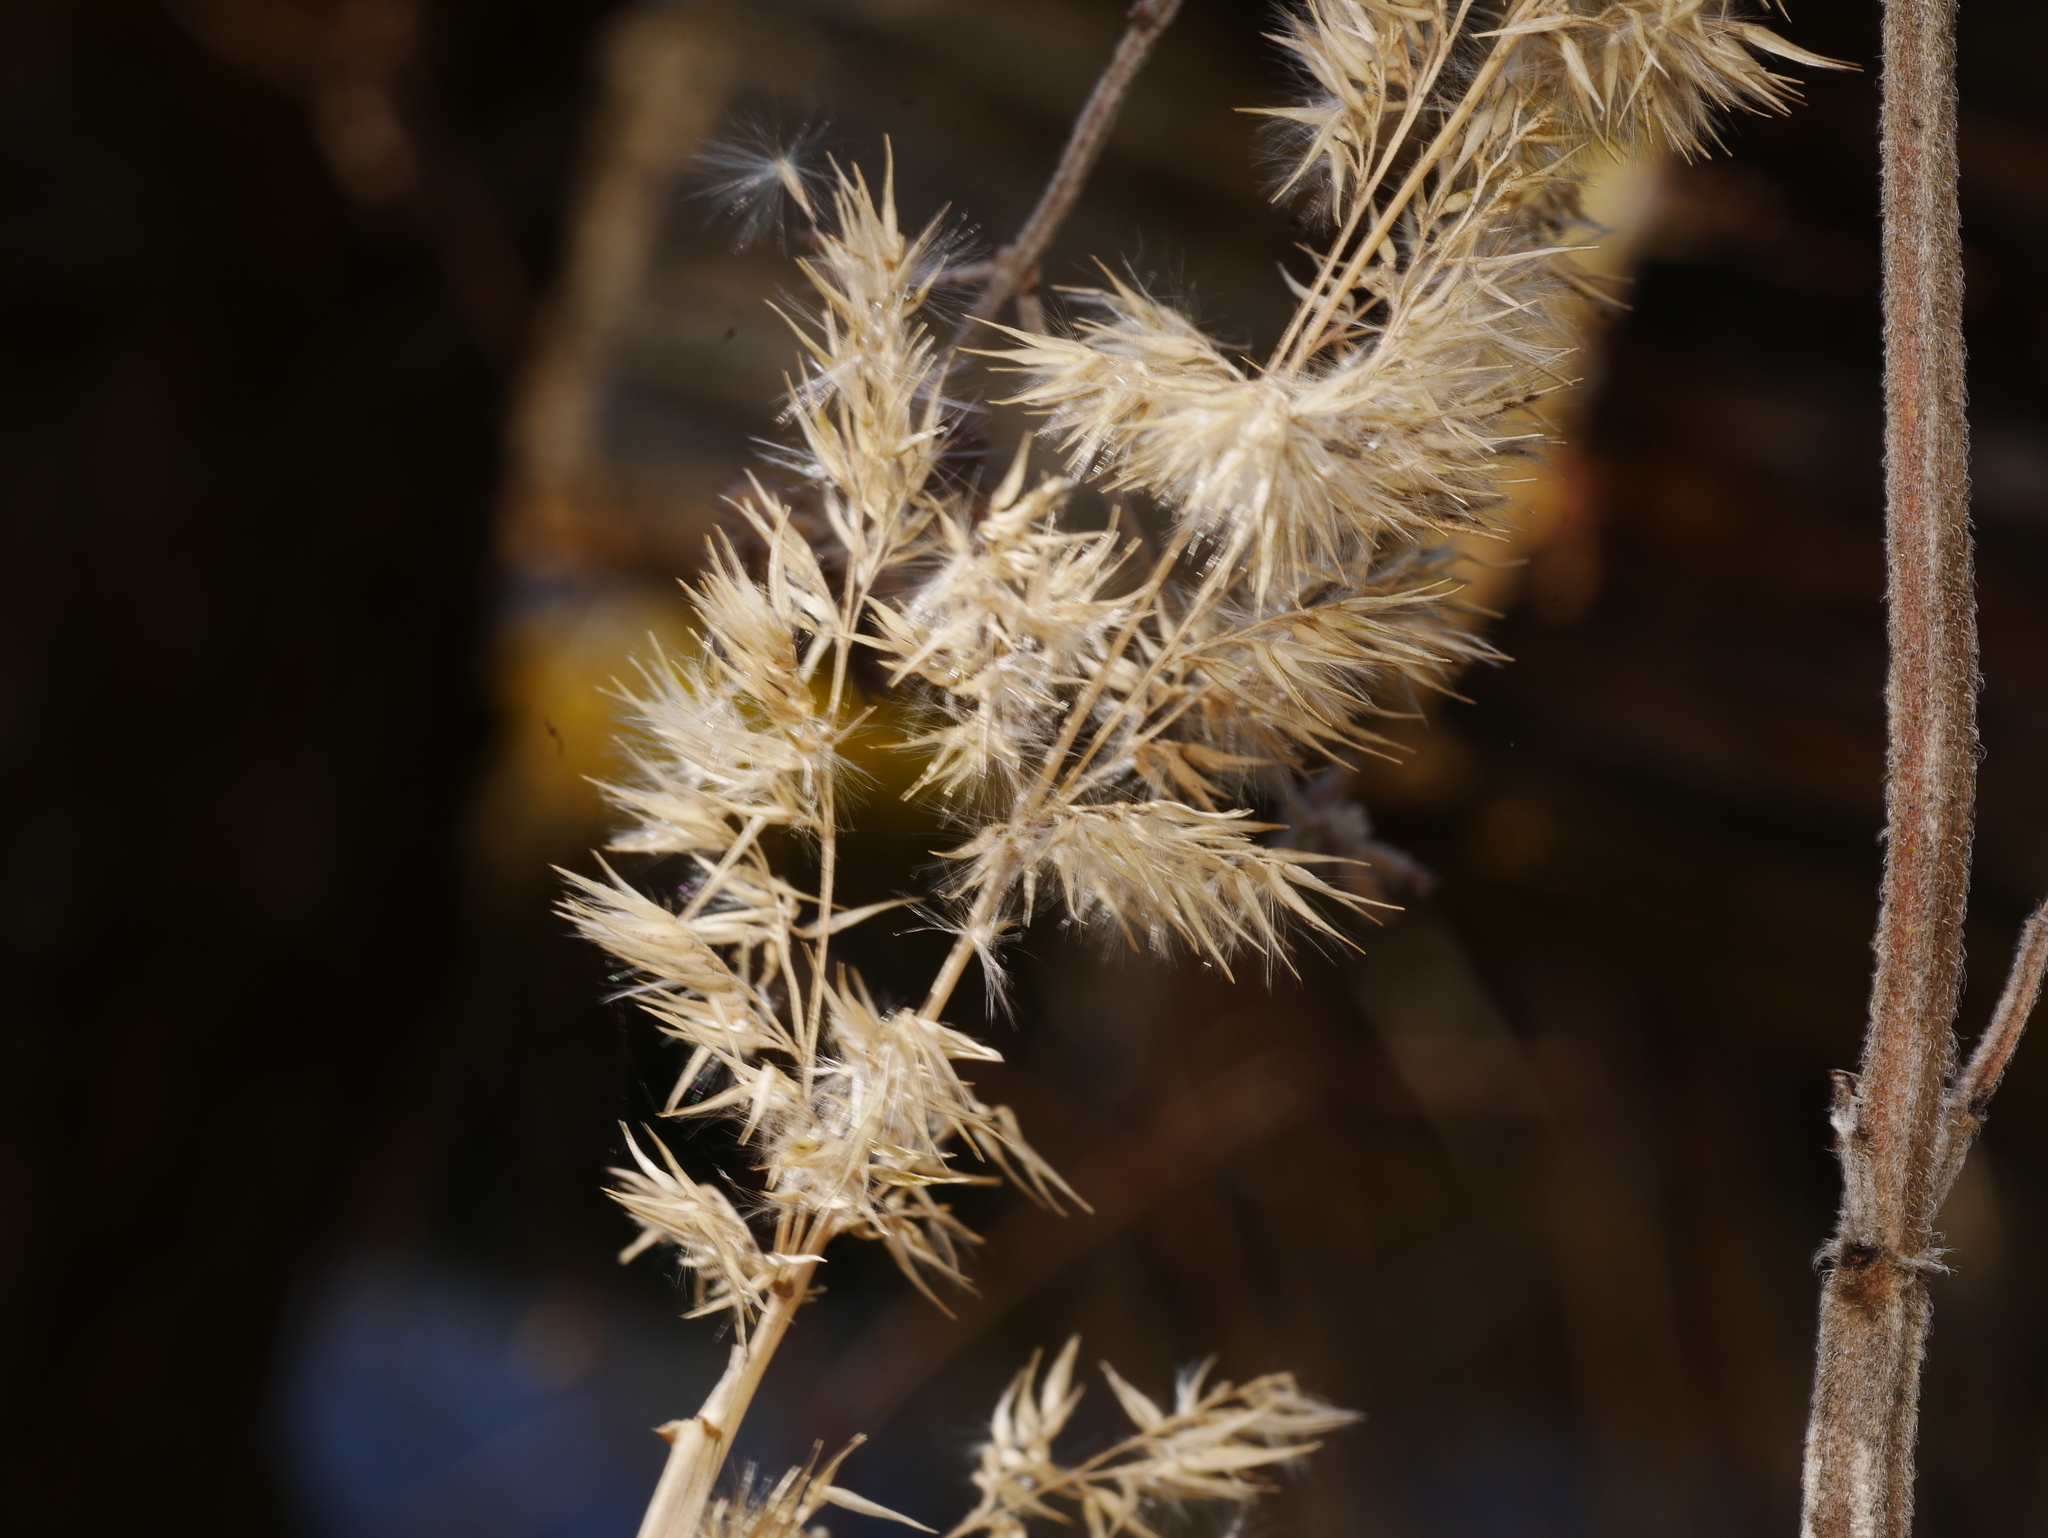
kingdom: Plantae
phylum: Tracheophyta
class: Liliopsida
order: Poales
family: Poaceae
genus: Calamagrostis
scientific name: Calamagrostis epigejos
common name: Wood small-reed
